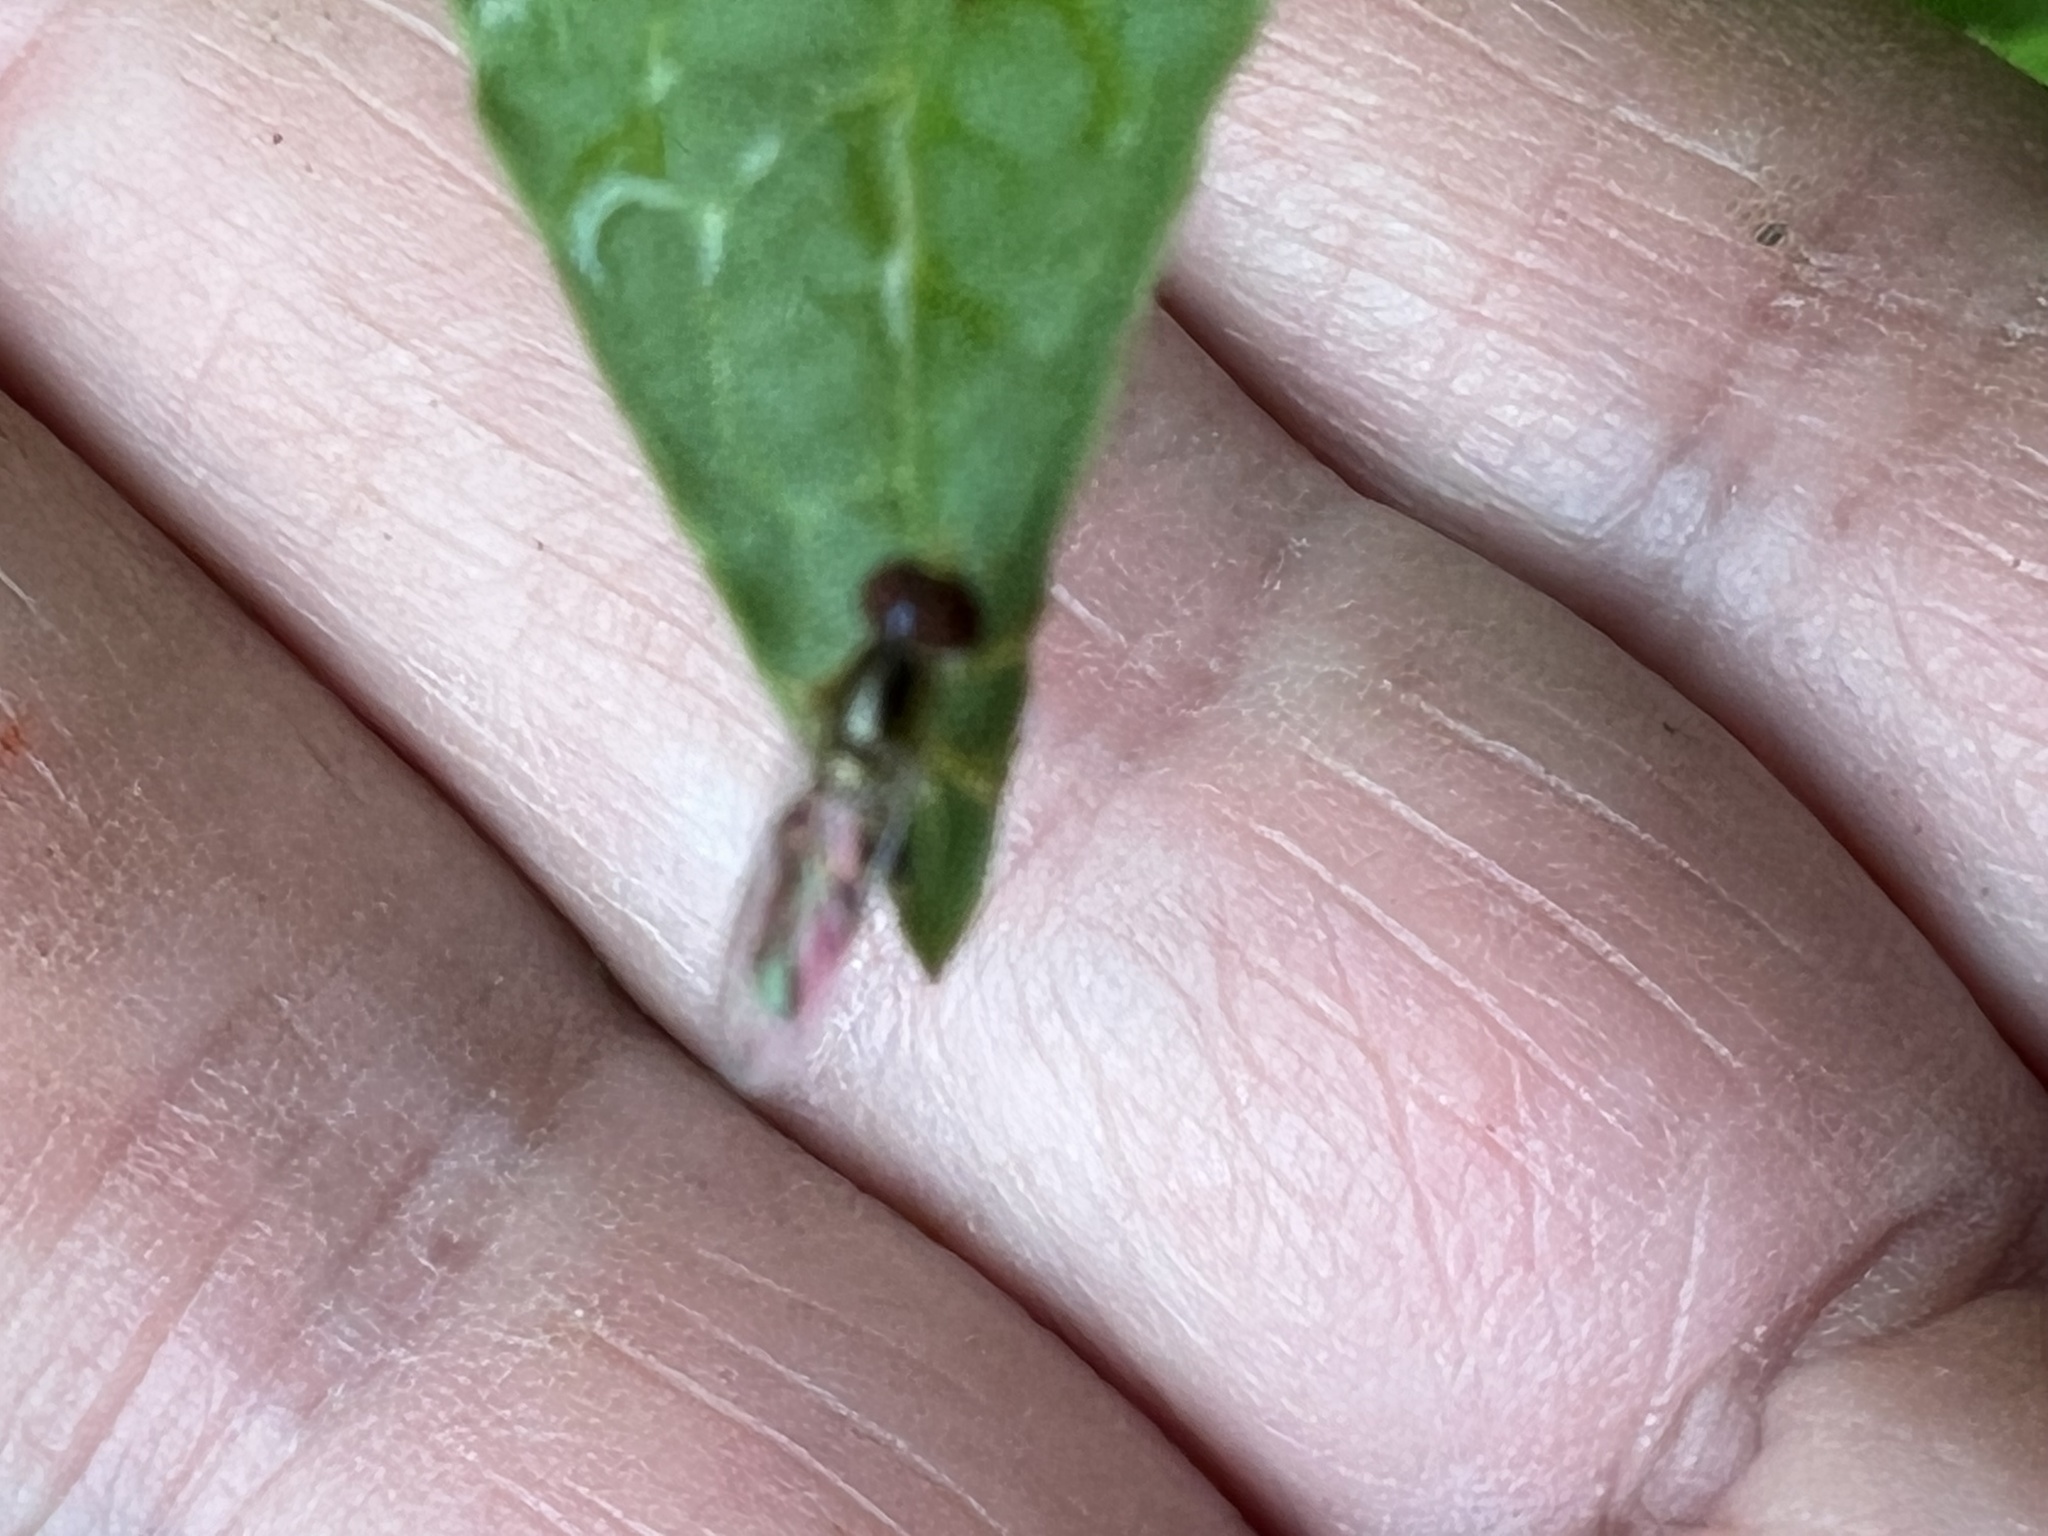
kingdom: Animalia
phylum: Arthropoda
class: Insecta
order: Diptera
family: Syrphidae
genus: Toxomerus
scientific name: Toxomerus geminatus
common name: Eastern calligrapher
